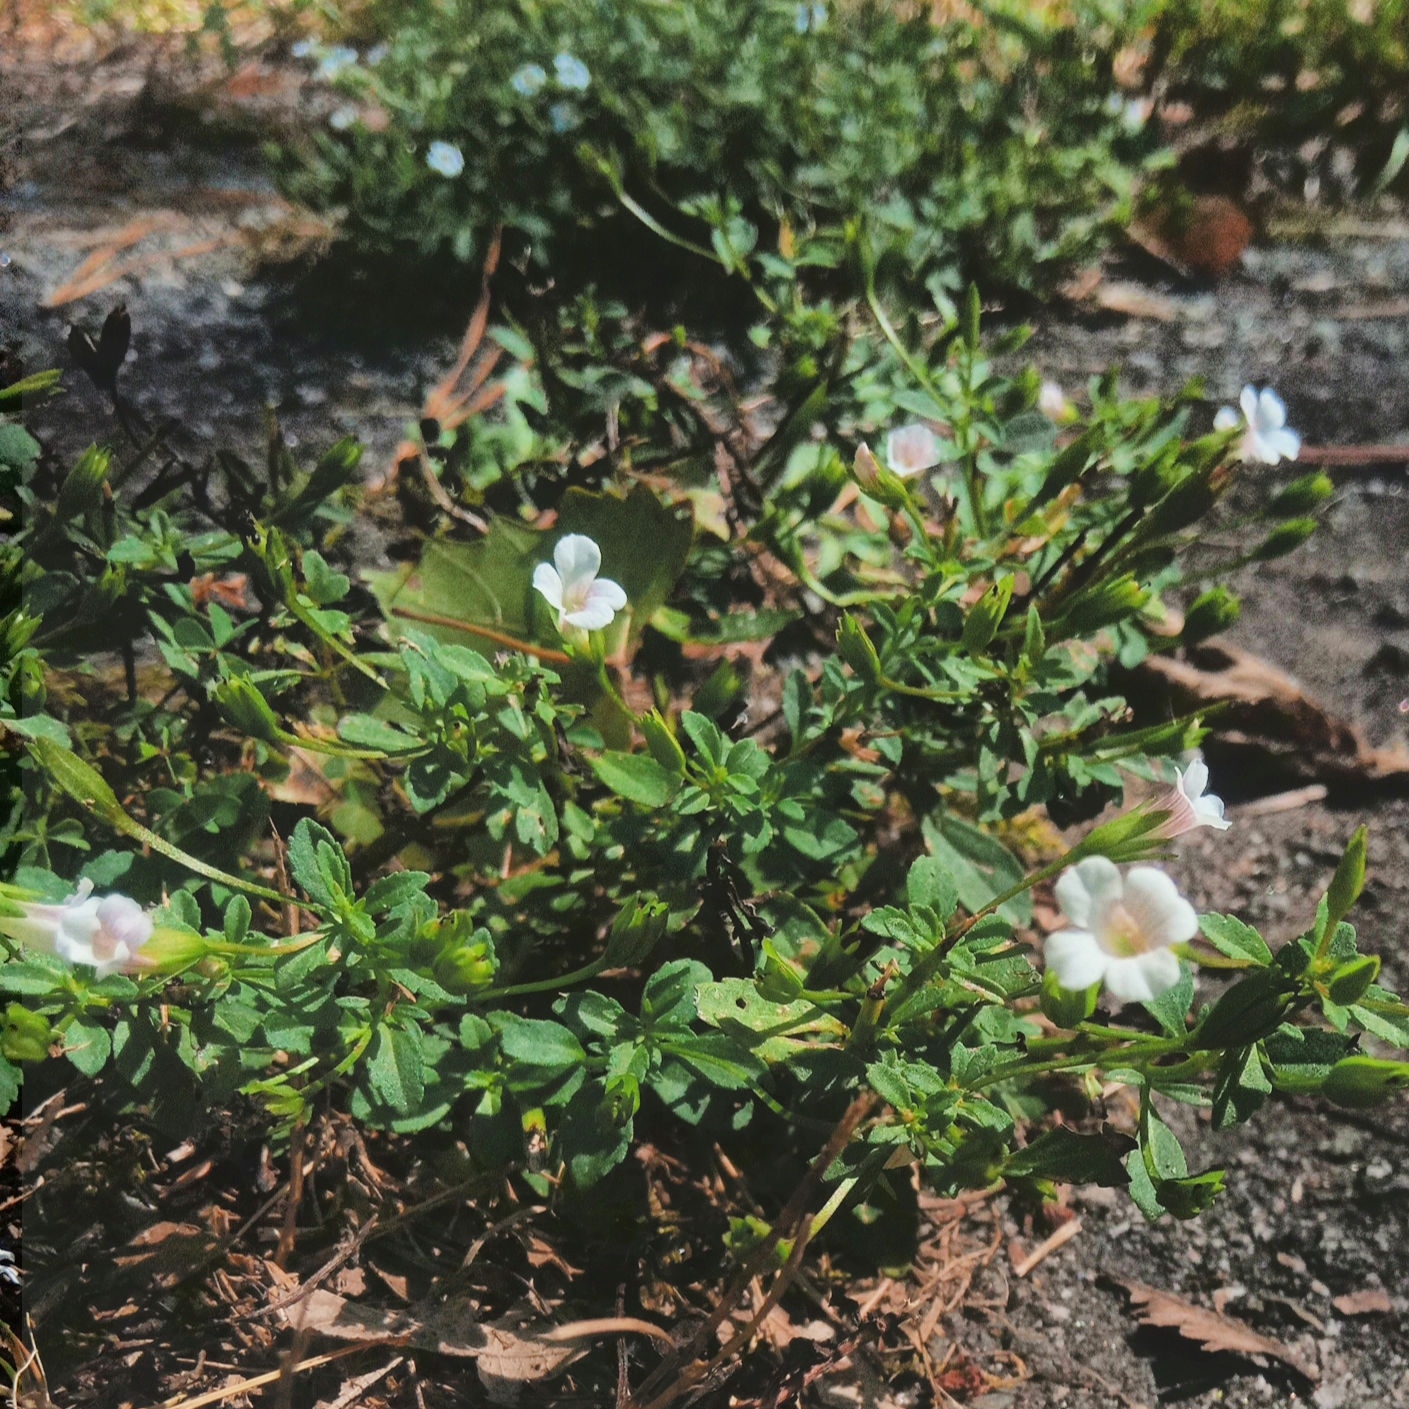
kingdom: Plantae
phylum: Tracheophyta
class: Magnoliopsida
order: Lamiales
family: Plantaginaceae
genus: Mecardonia
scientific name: Mecardonia acuminata
